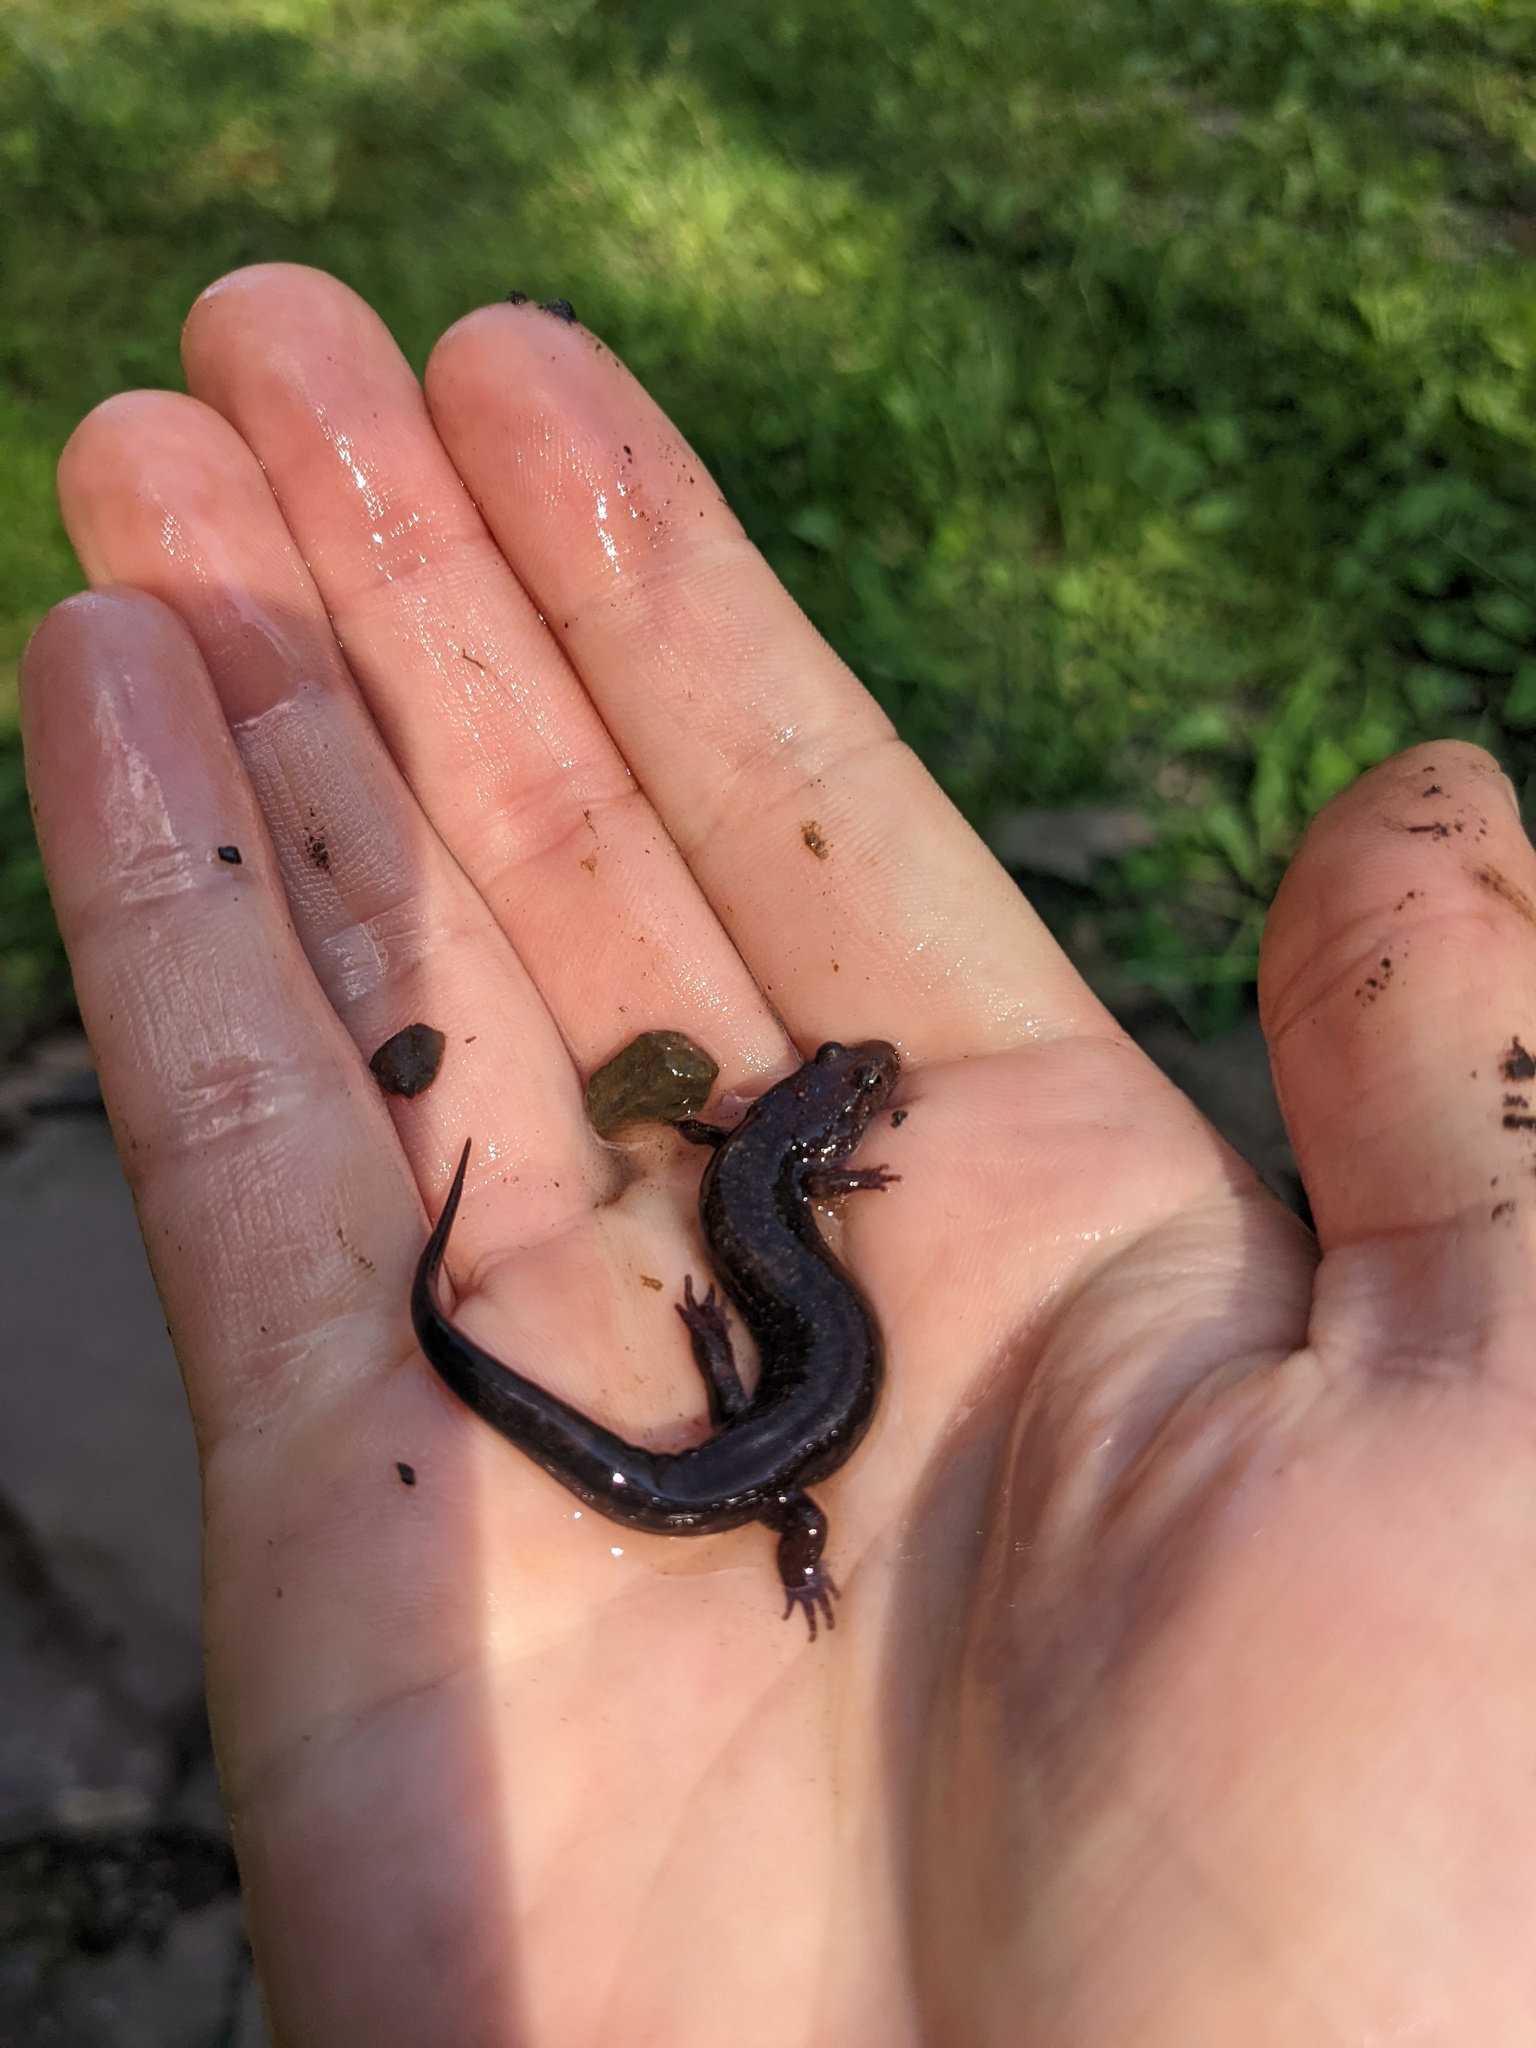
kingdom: Animalia
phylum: Chordata
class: Amphibia
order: Caudata
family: Plethodontidae
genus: Desmognathus
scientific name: Desmognathus ochrophaeus
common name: Allegheny mountain dusky salamander
